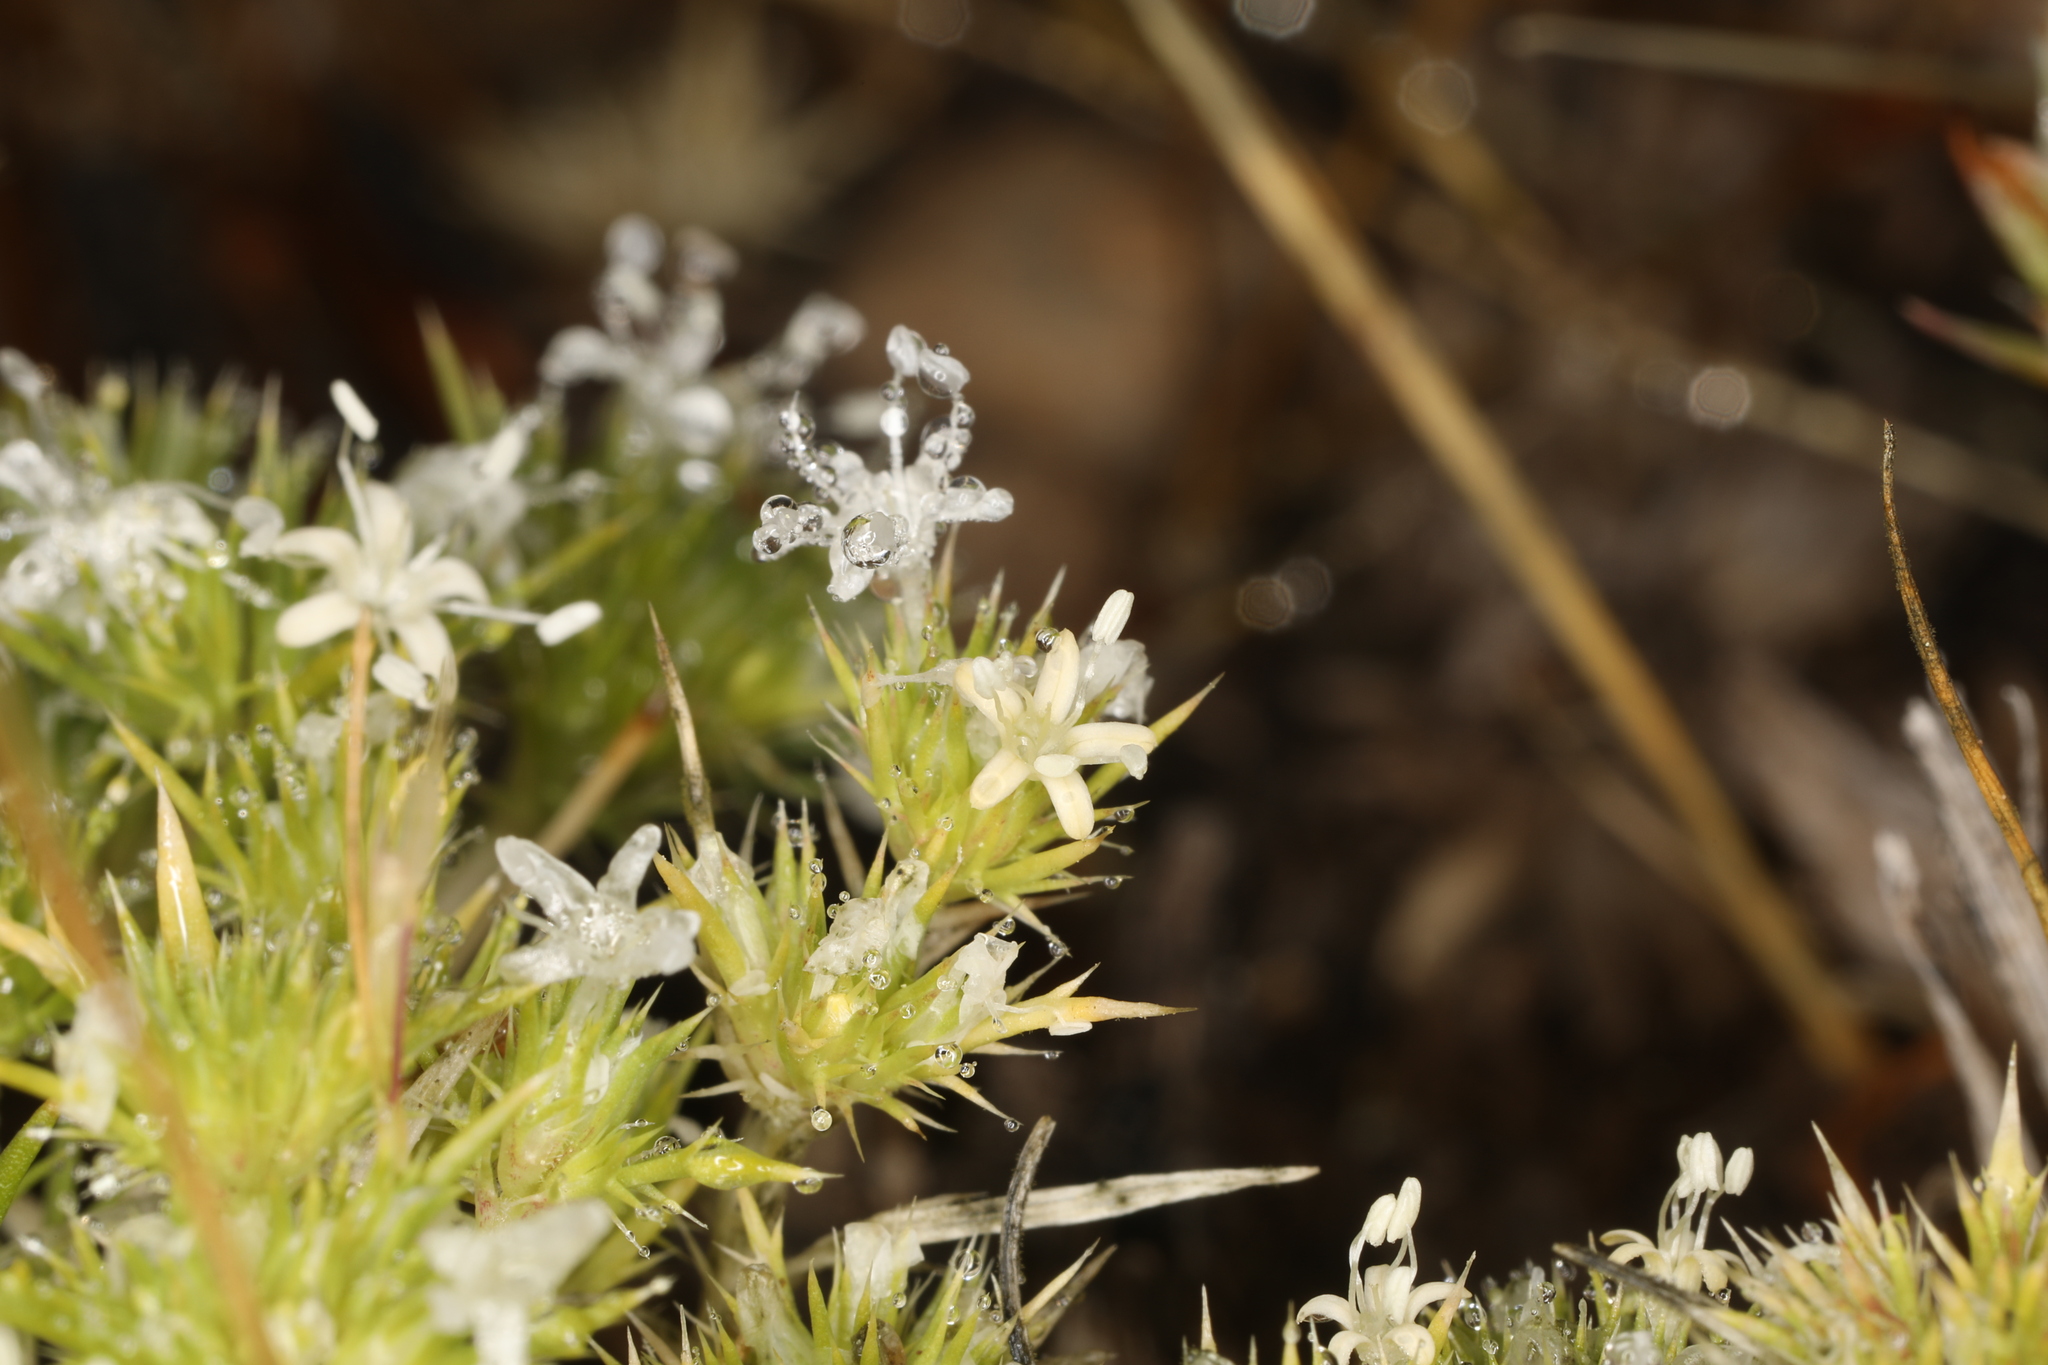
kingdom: Plantae
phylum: Tracheophyta
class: Magnoliopsida
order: Ericales
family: Polemoniaceae
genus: Navarretia
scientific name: Navarretia leucocephala
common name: White-flowered navarretia
